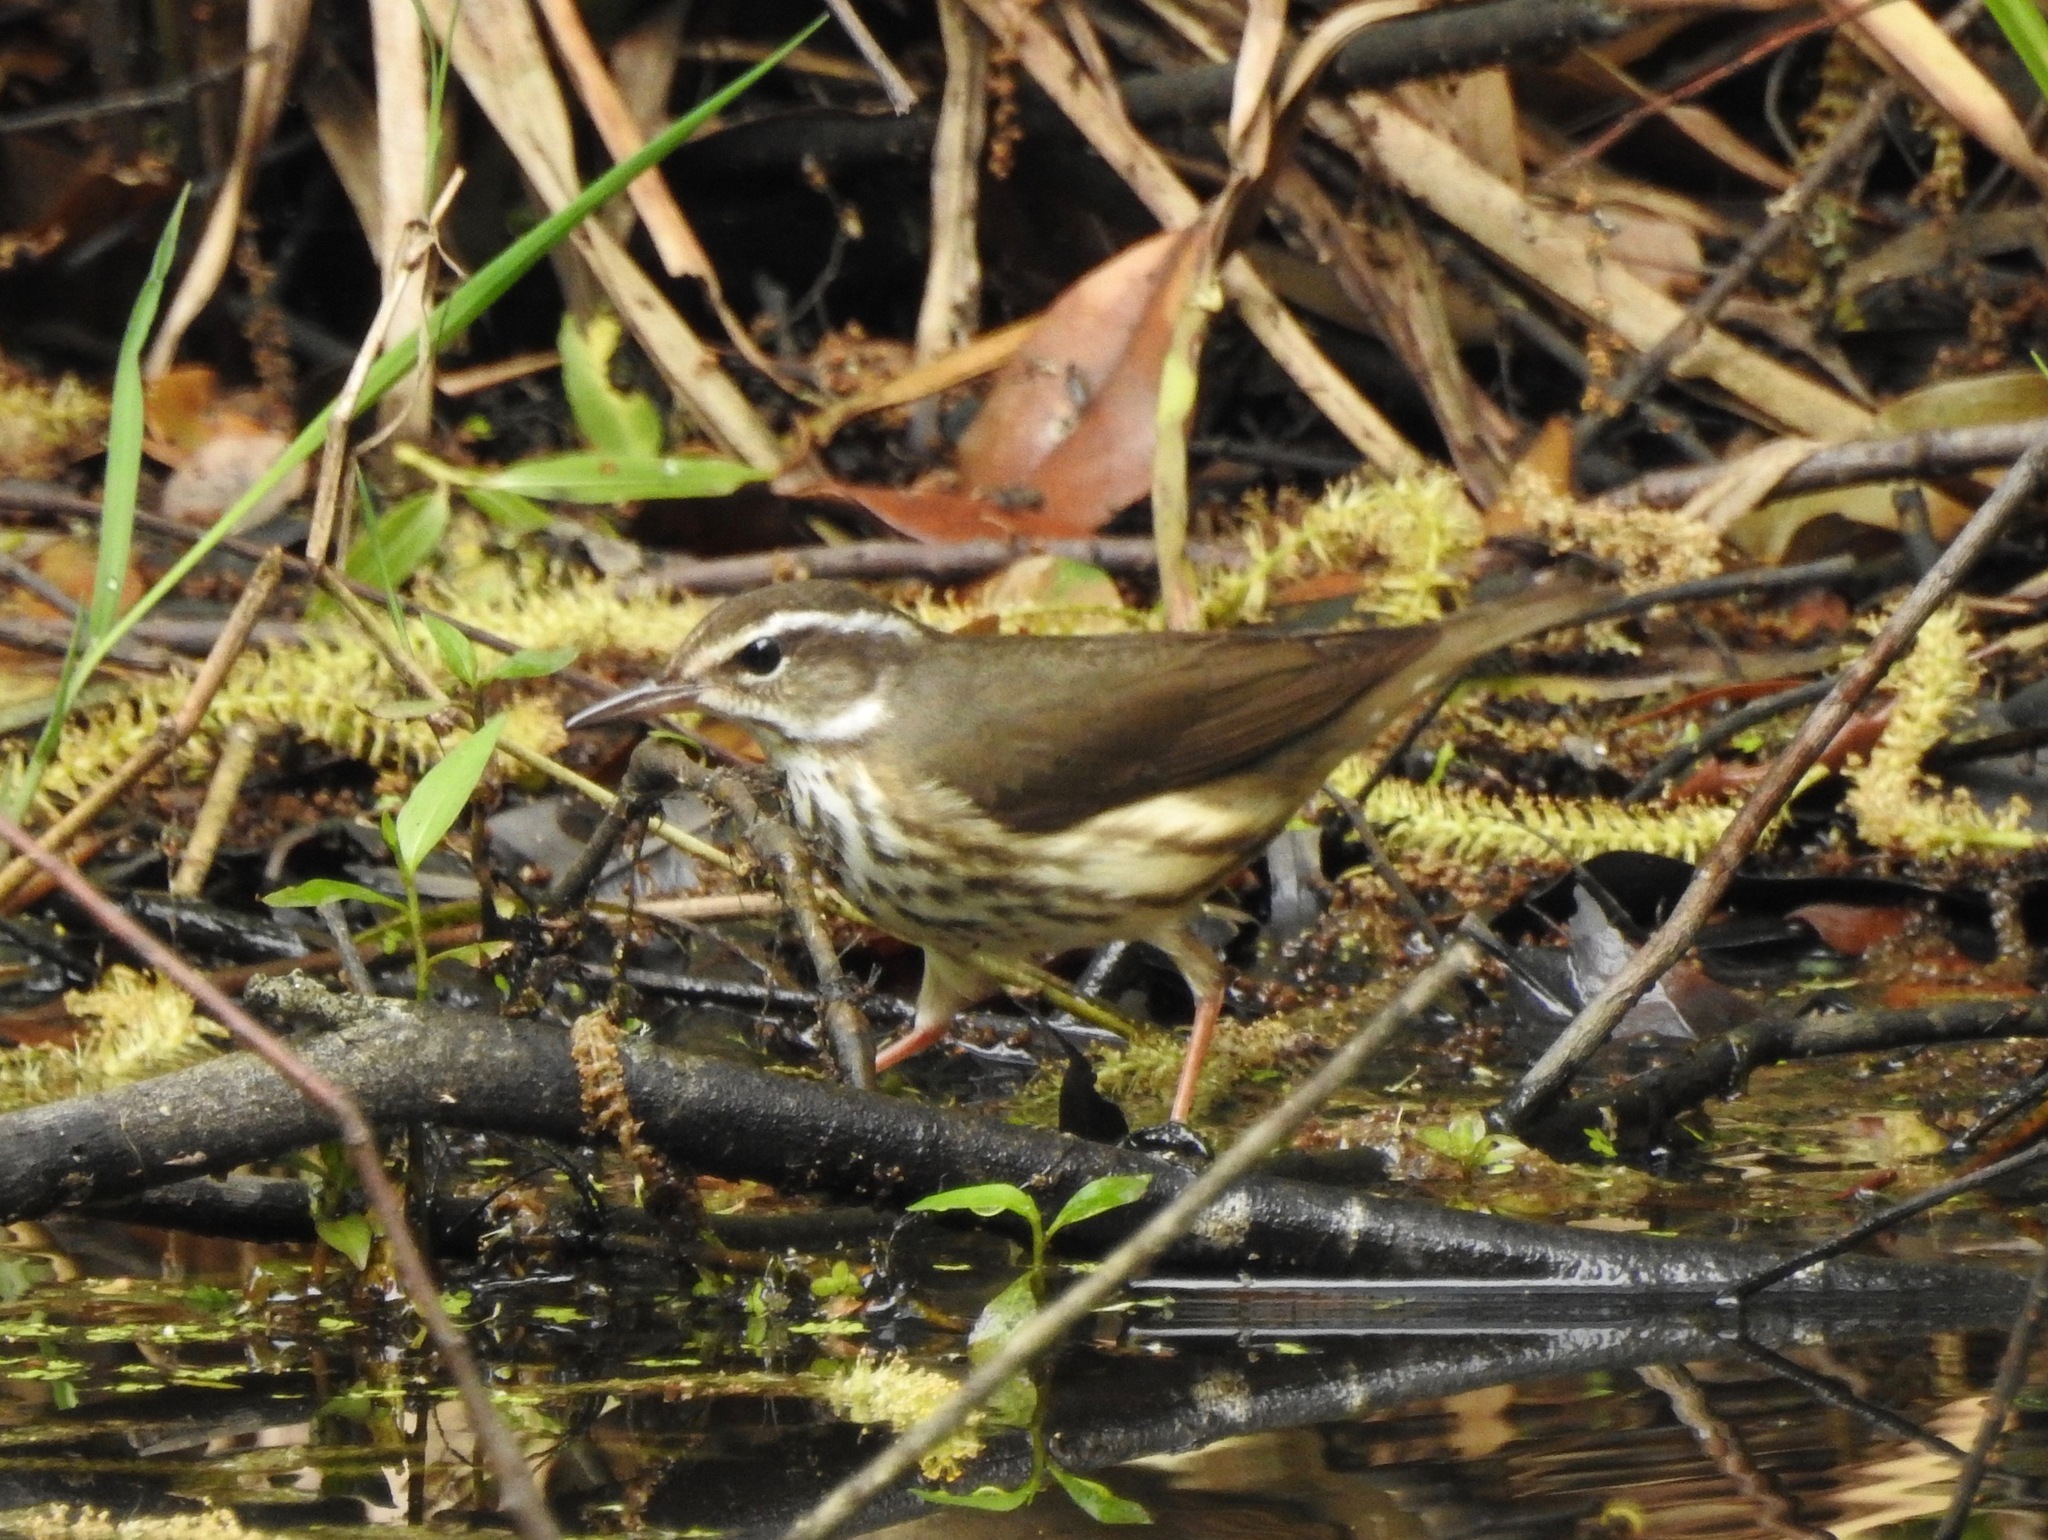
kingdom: Animalia
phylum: Chordata
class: Aves
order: Passeriformes
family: Parulidae
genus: Parkesia
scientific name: Parkesia motacilla
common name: Louisiana waterthrush
